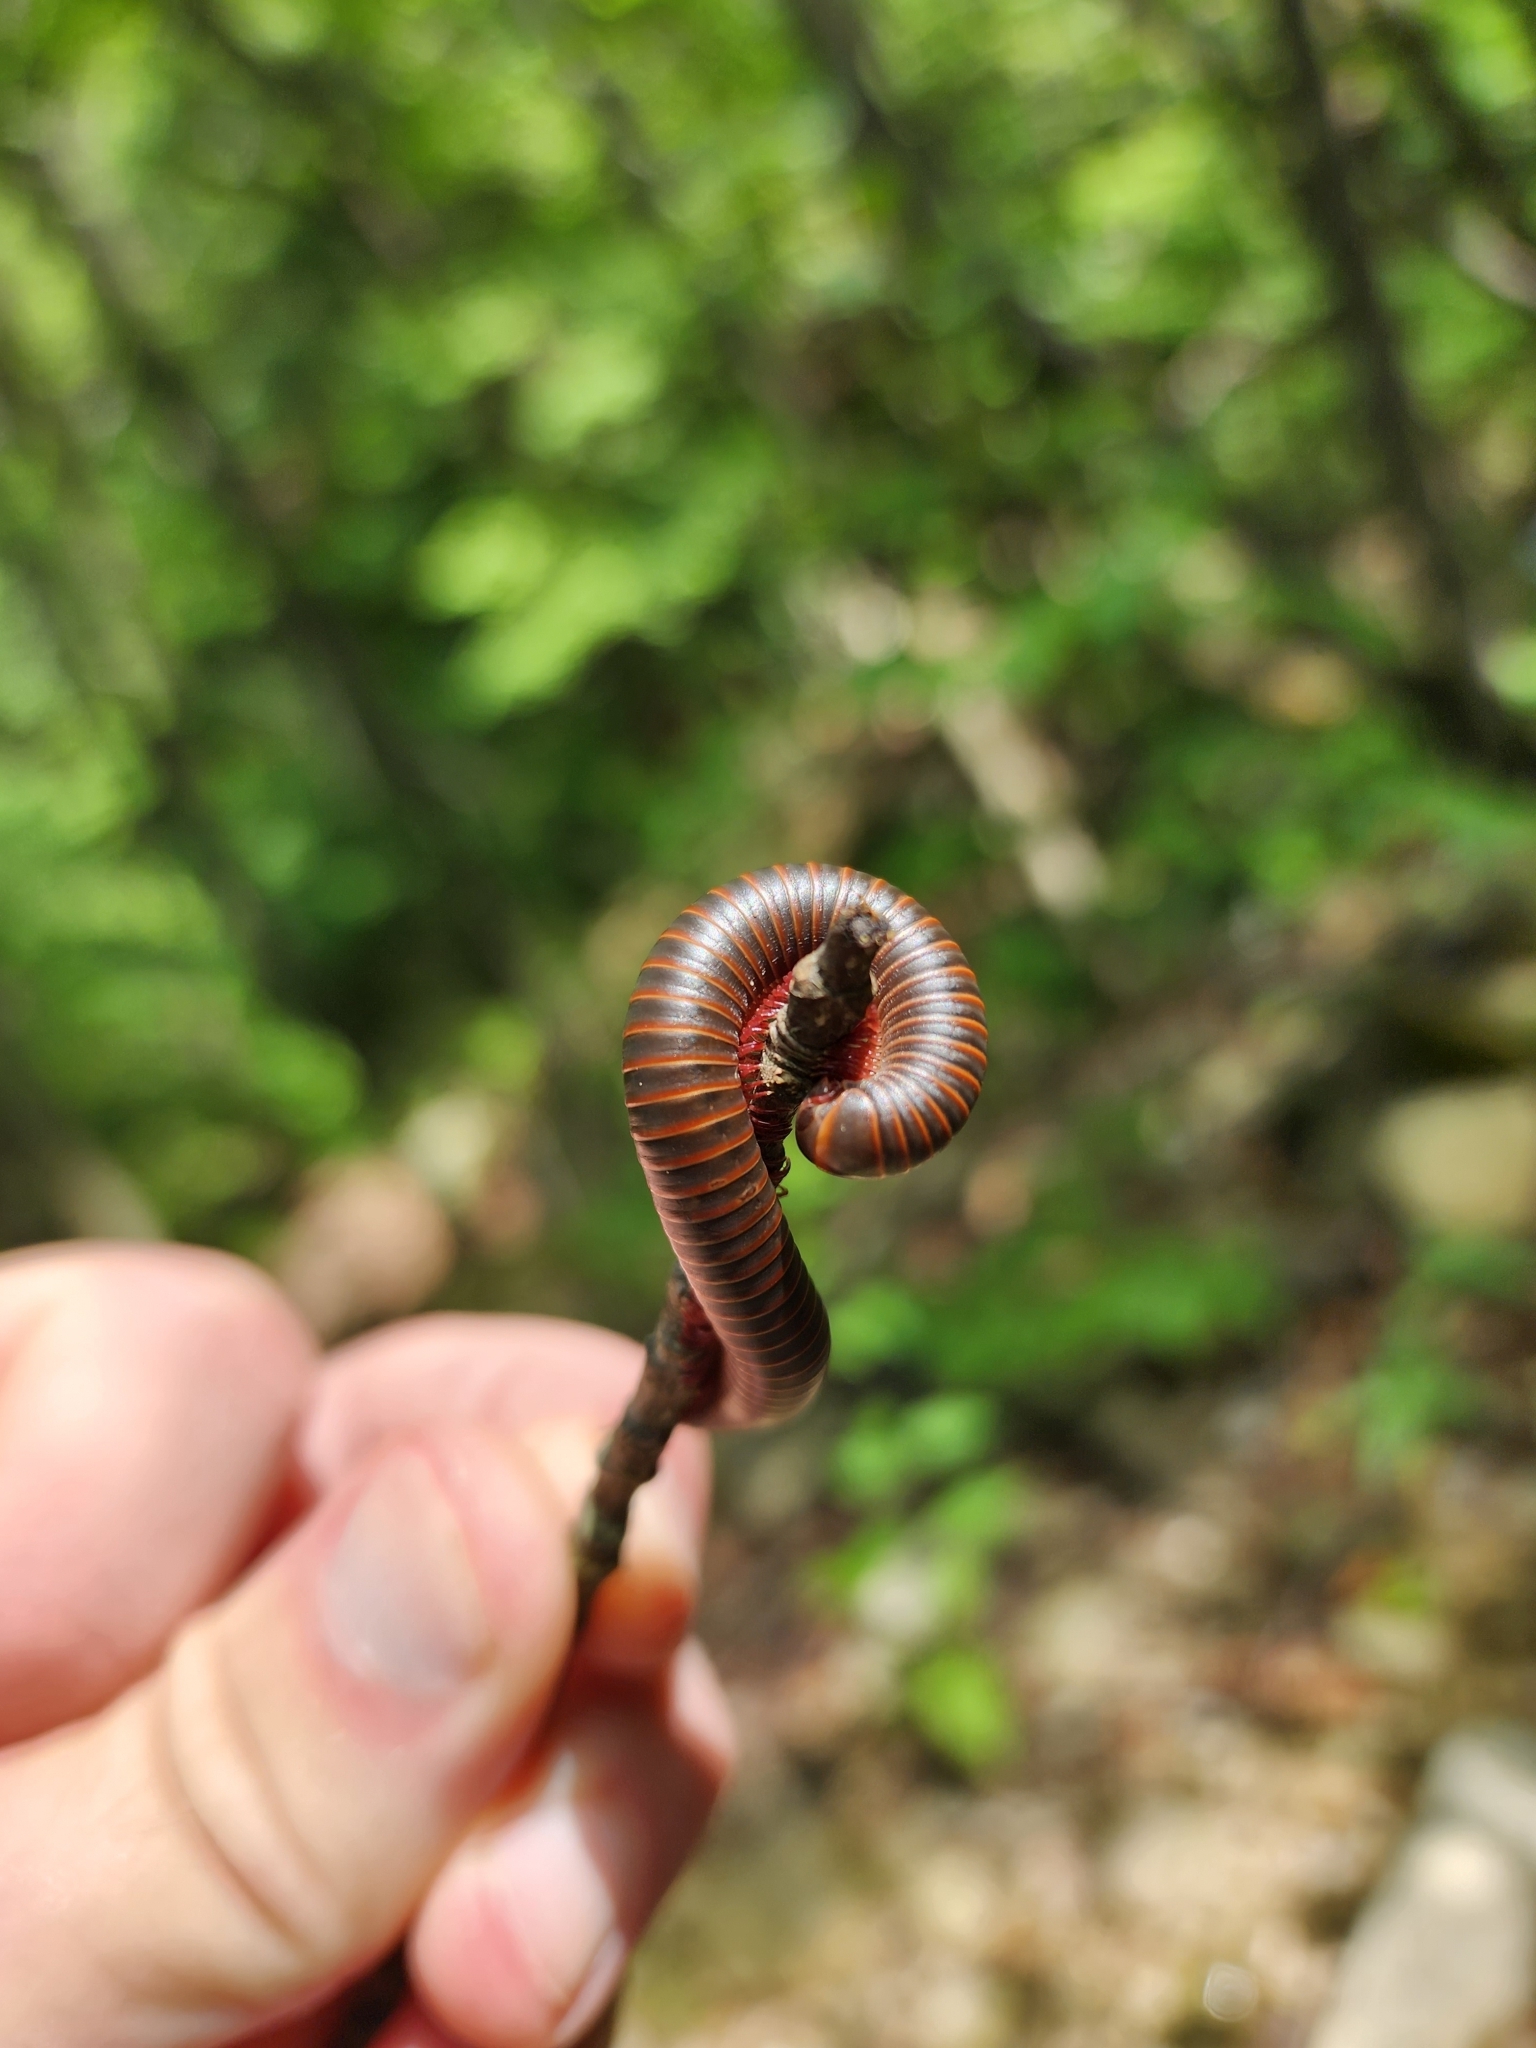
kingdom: Animalia
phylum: Arthropoda
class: Diplopoda
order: Spirobolida
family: Spirobolidae
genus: Narceus
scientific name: Narceus americanus
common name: American giant millipede
